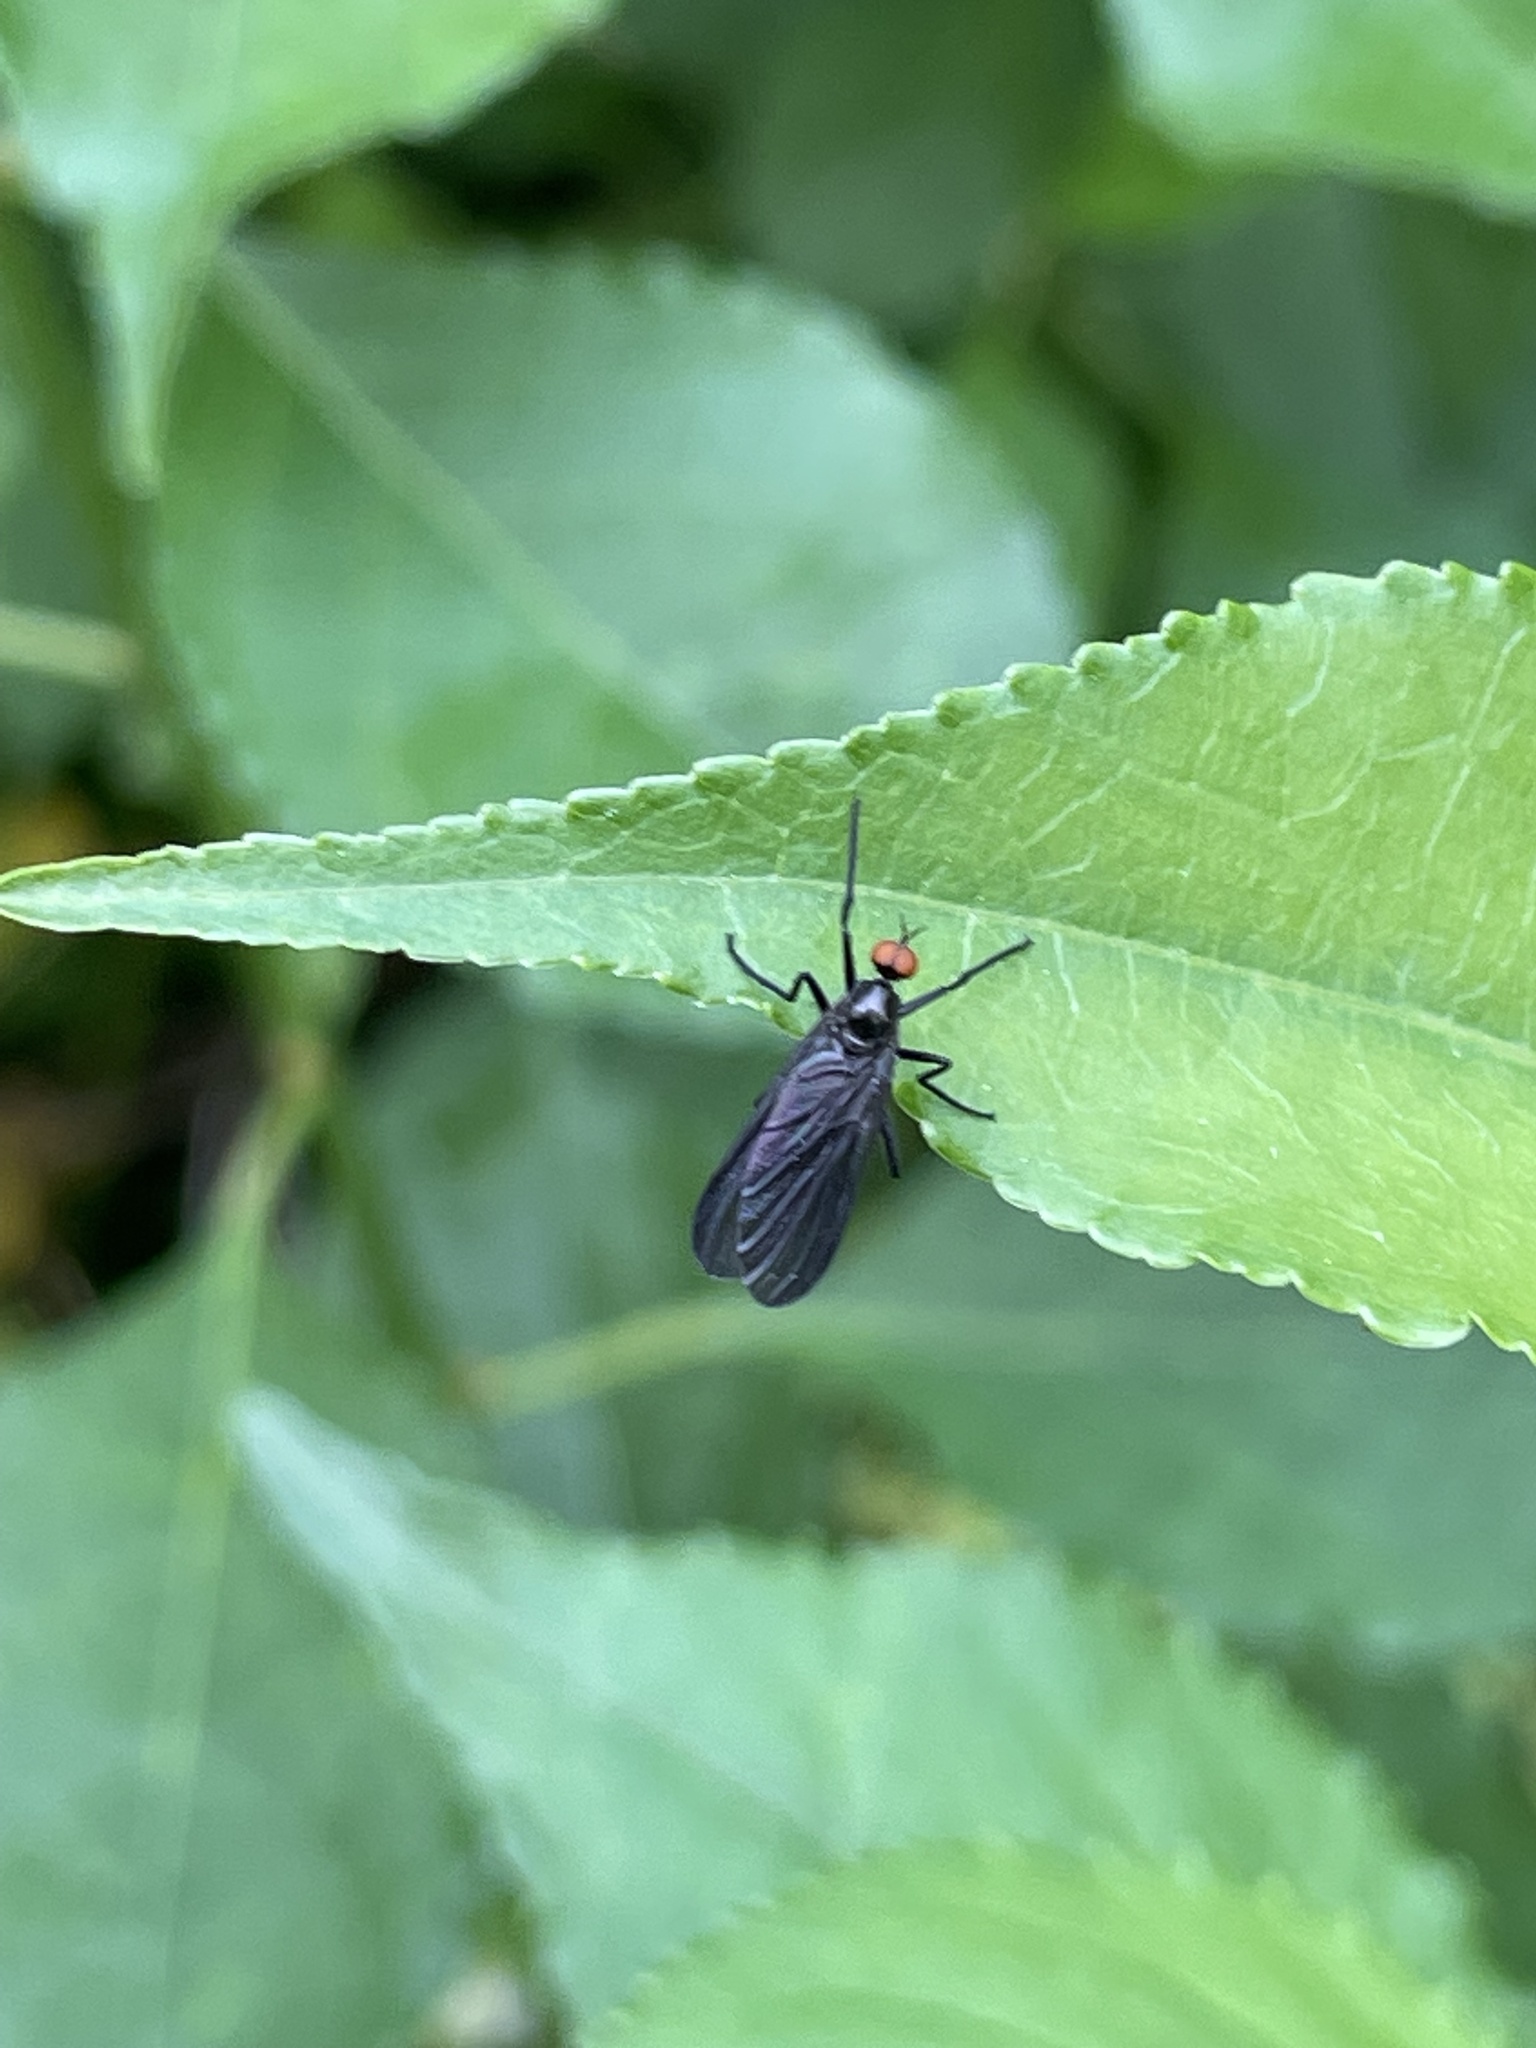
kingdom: Animalia
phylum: Arthropoda
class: Insecta
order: Diptera
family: Empididae
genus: Rhamphomyia
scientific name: Rhamphomyia longicauda
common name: Long-tailed dance fly
